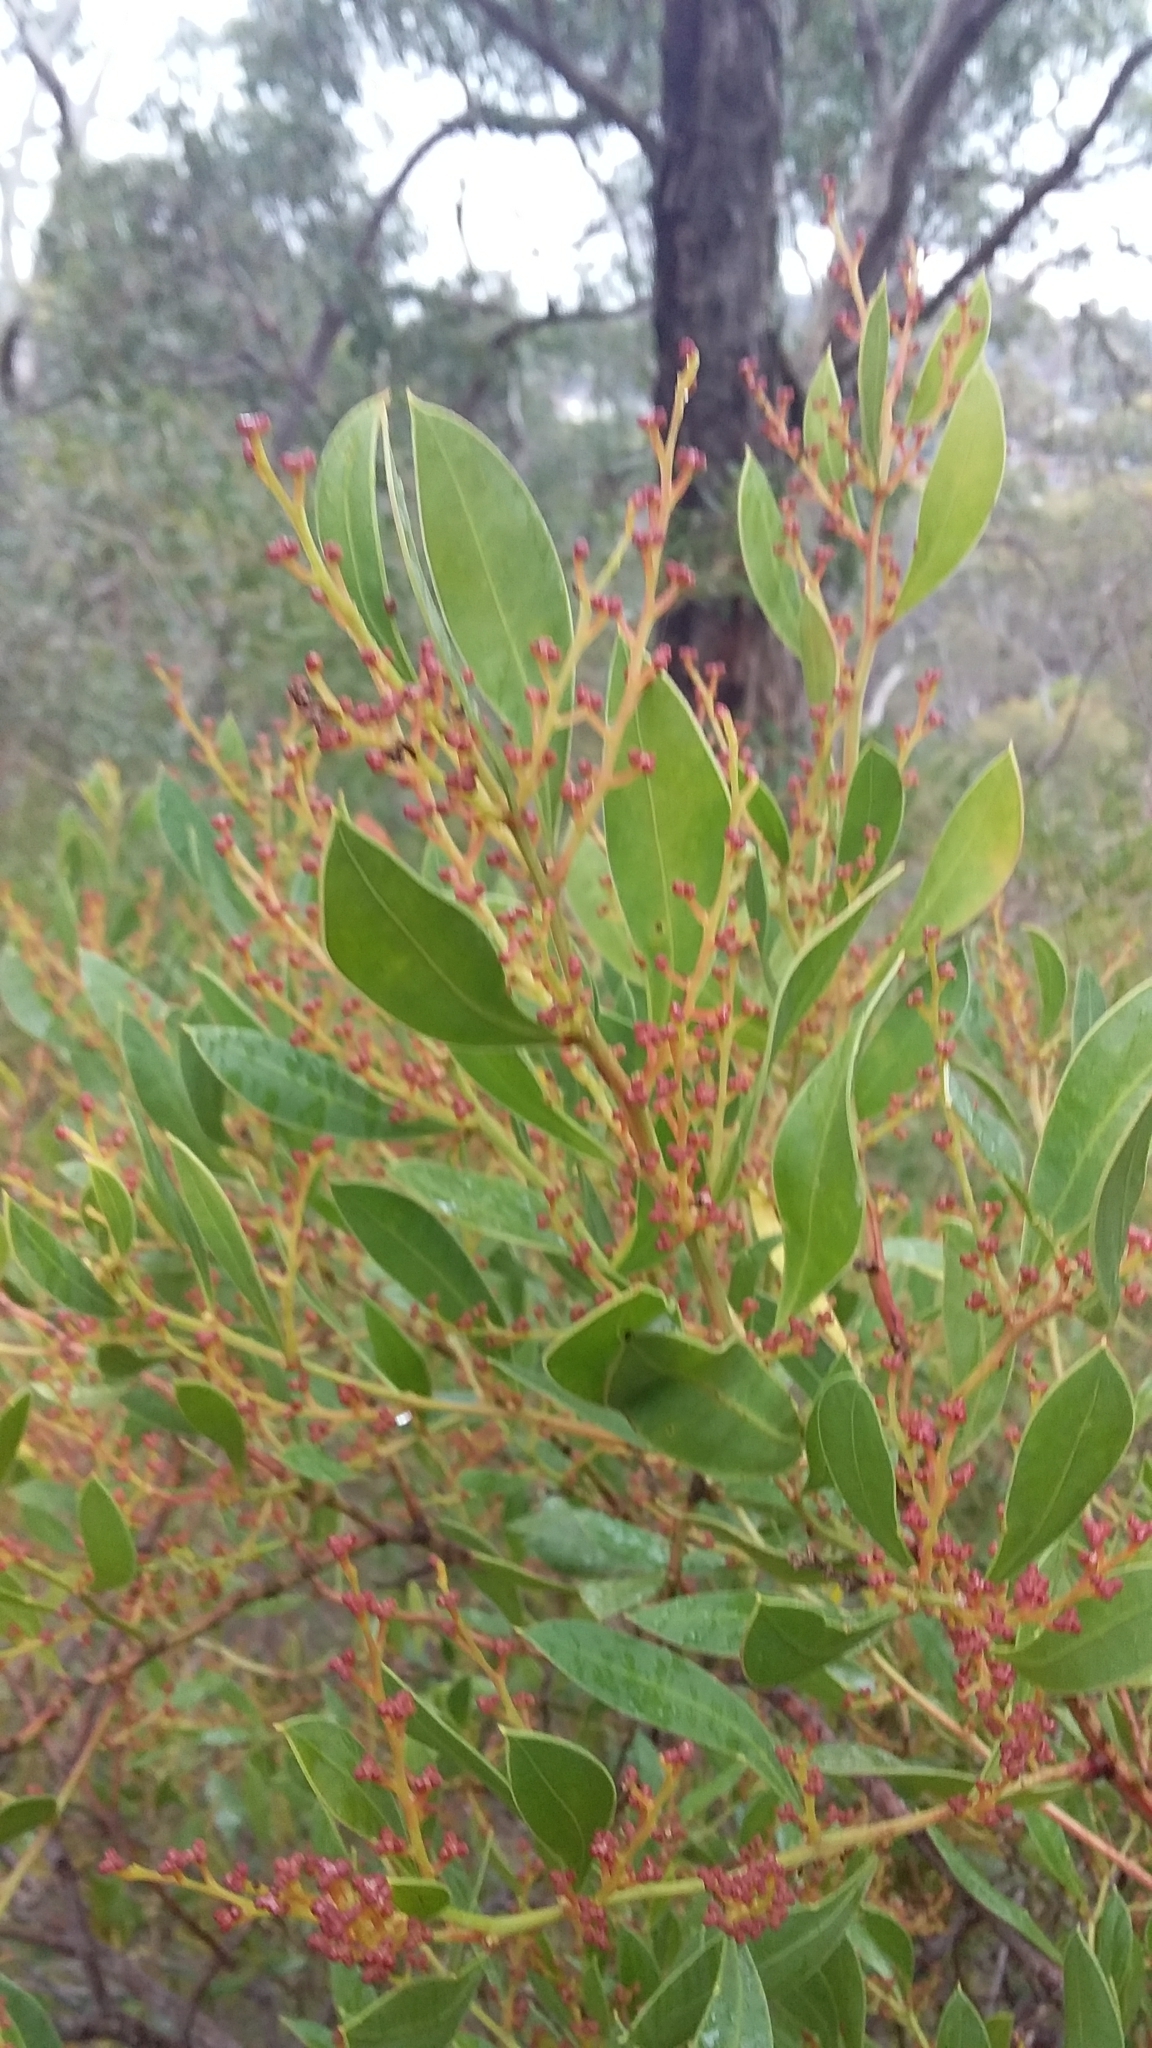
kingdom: Plantae
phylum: Tracheophyta
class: Magnoliopsida
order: Fabales
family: Fabaceae
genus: Acacia
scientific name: Acacia myrtifolia
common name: Myrtle wattle
